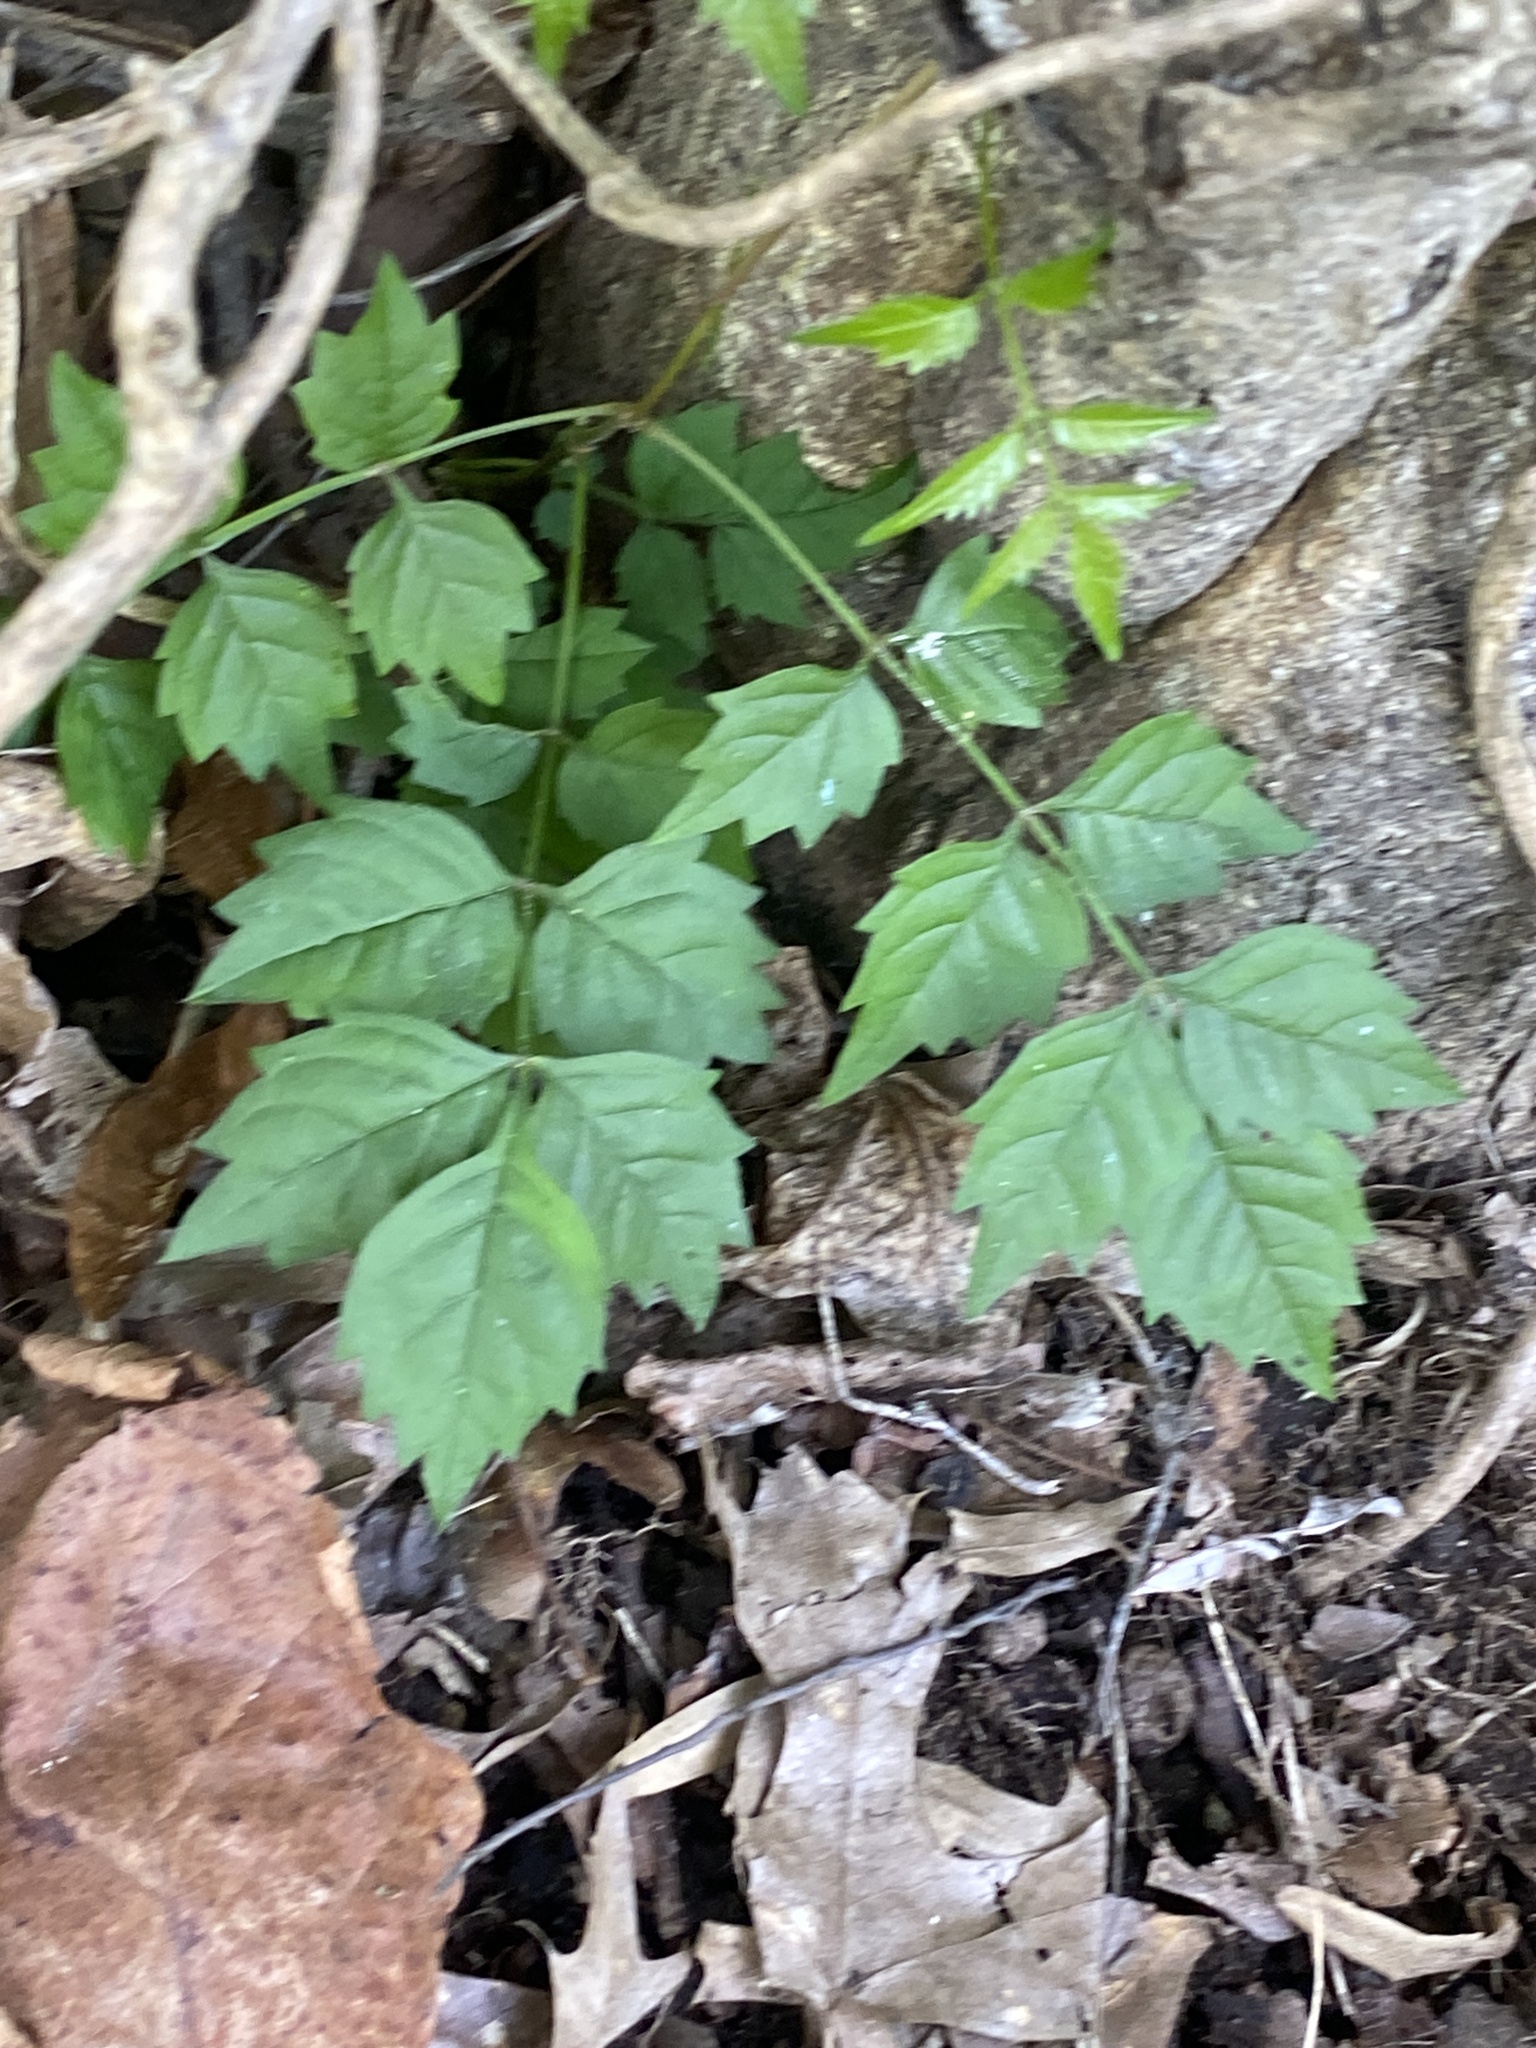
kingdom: Plantae
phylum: Tracheophyta
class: Magnoliopsida
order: Lamiales
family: Bignoniaceae
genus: Campsis
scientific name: Campsis radicans
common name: Trumpet-creeper
